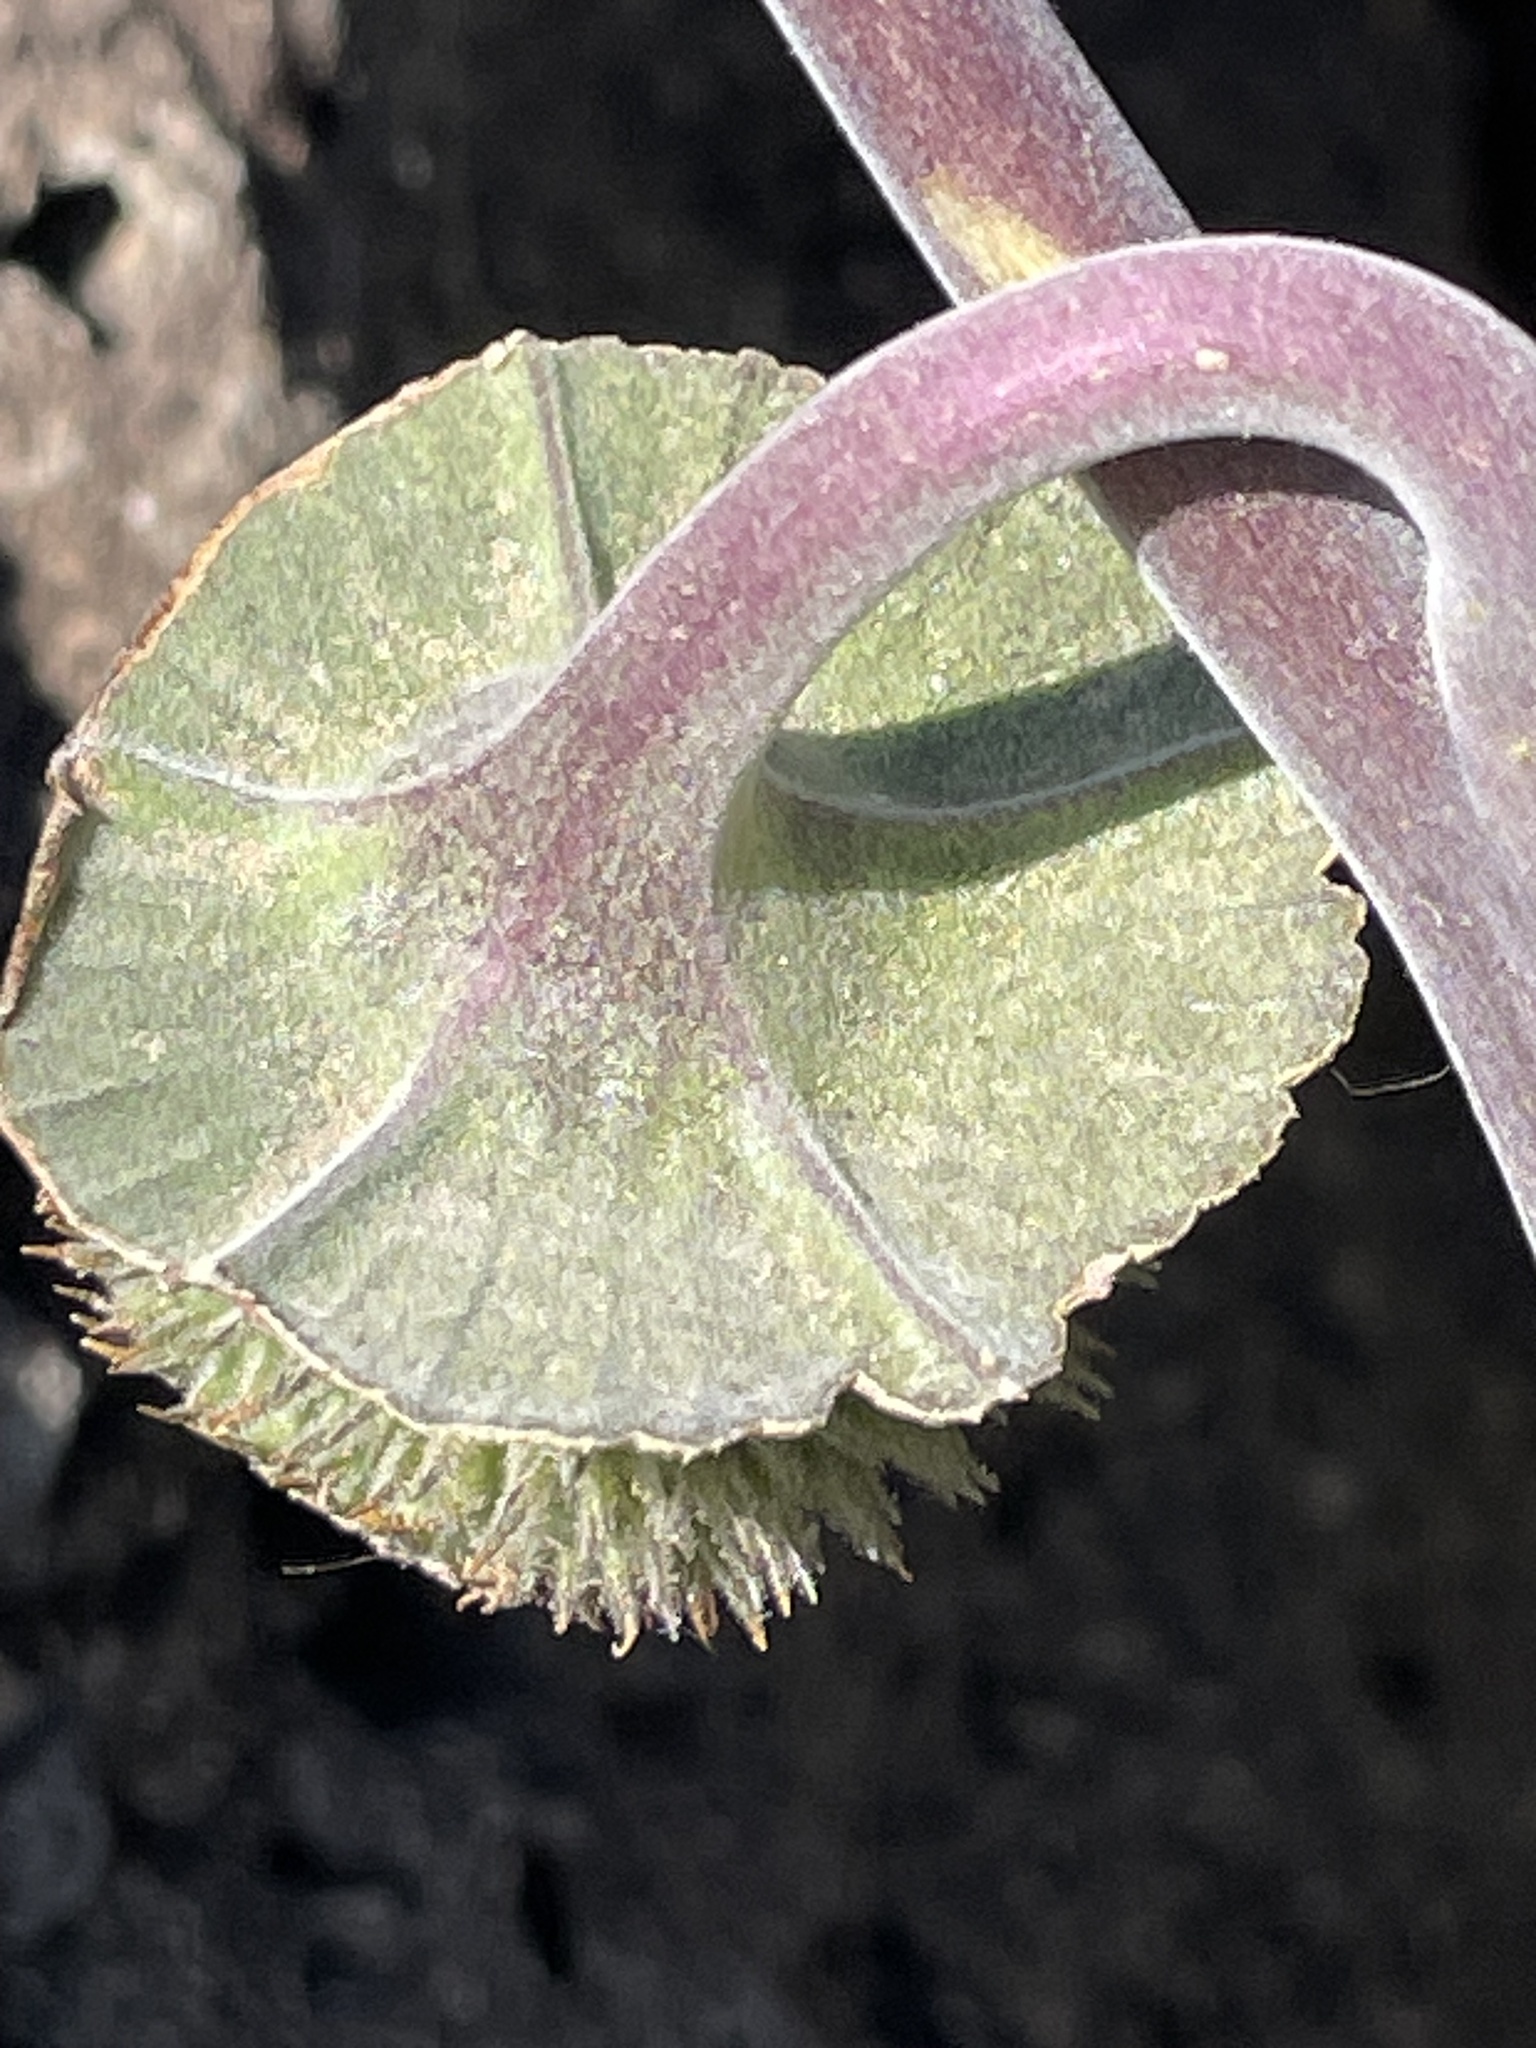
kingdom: Plantae
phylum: Tracheophyta
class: Magnoliopsida
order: Solanales
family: Solanaceae
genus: Datura
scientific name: Datura wrightii
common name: Sacred thorn-apple
